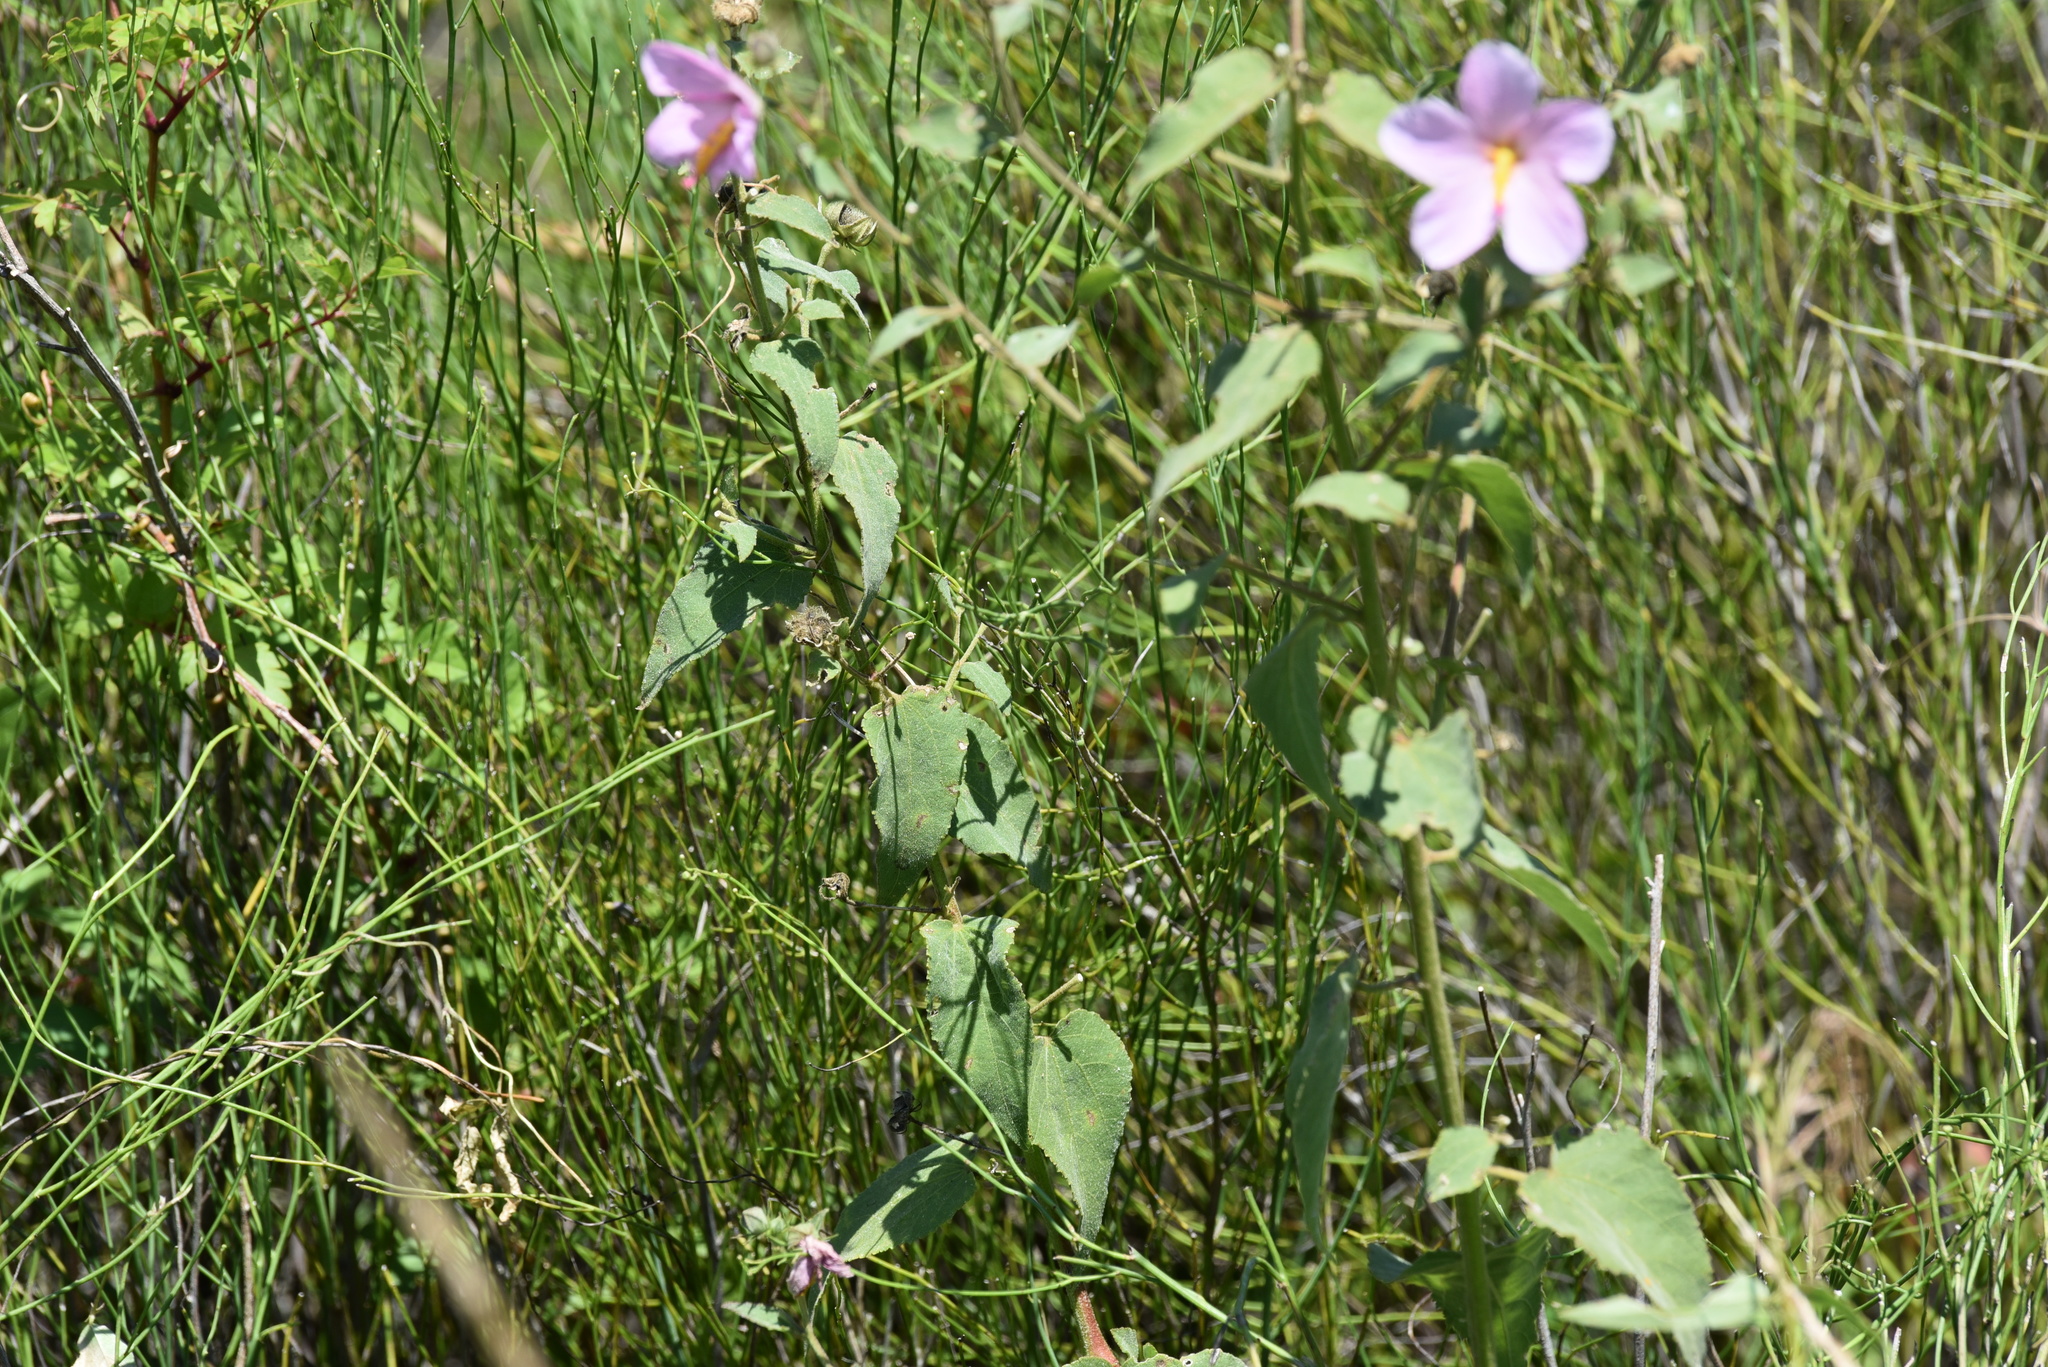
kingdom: Plantae
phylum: Tracheophyta
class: Magnoliopsida
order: Malvales
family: Malvaceae
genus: Kosteletzkya
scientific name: Kosteletzkya pentacarpos
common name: Virginia saltmarsh mallow
